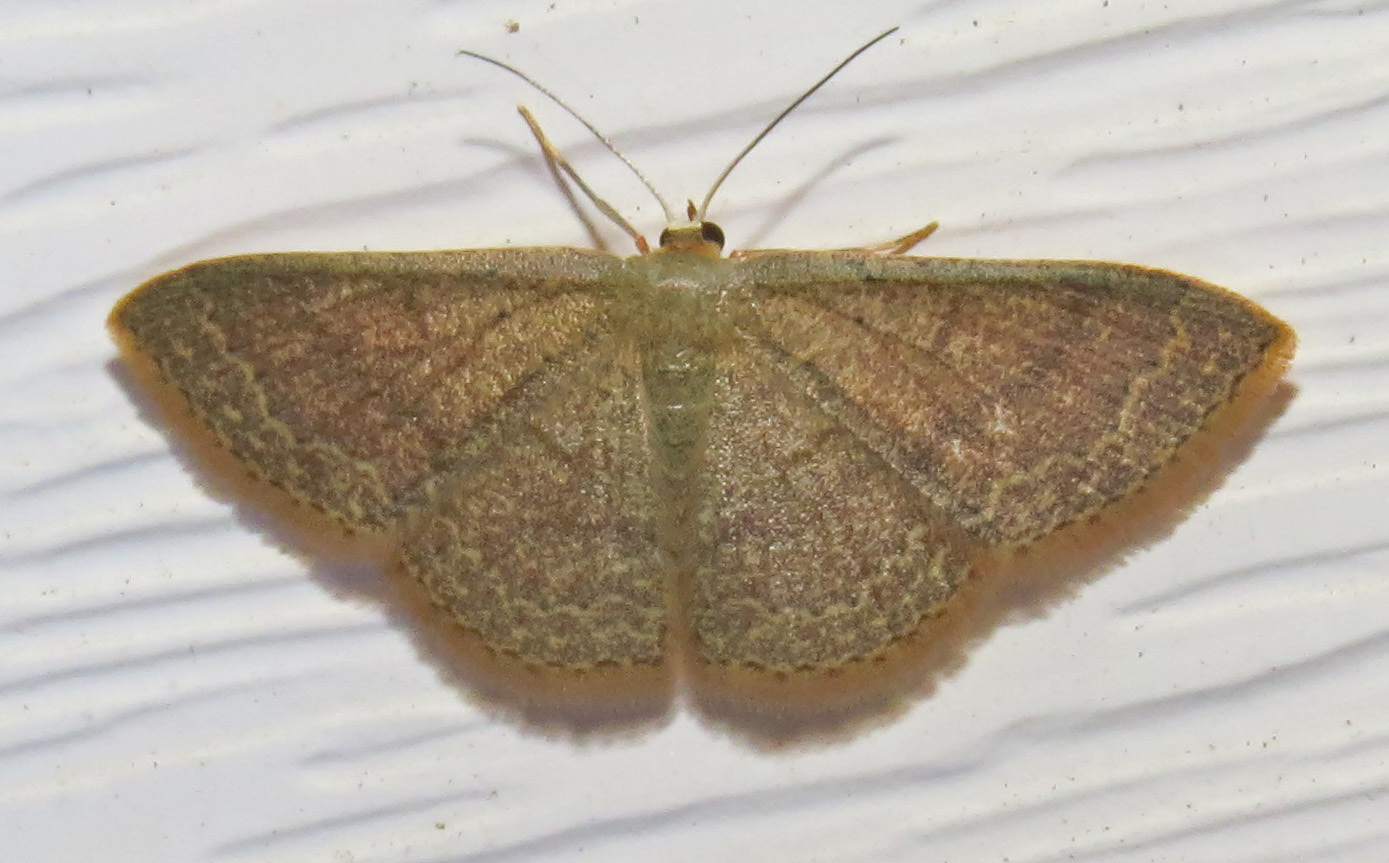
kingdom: Animalia
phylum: Arthropoda
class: Insecta
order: Lepidoptera
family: Geometridae
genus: Pleuroprucha
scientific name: Pleuroprucha insulsaria
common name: Common tan wave
